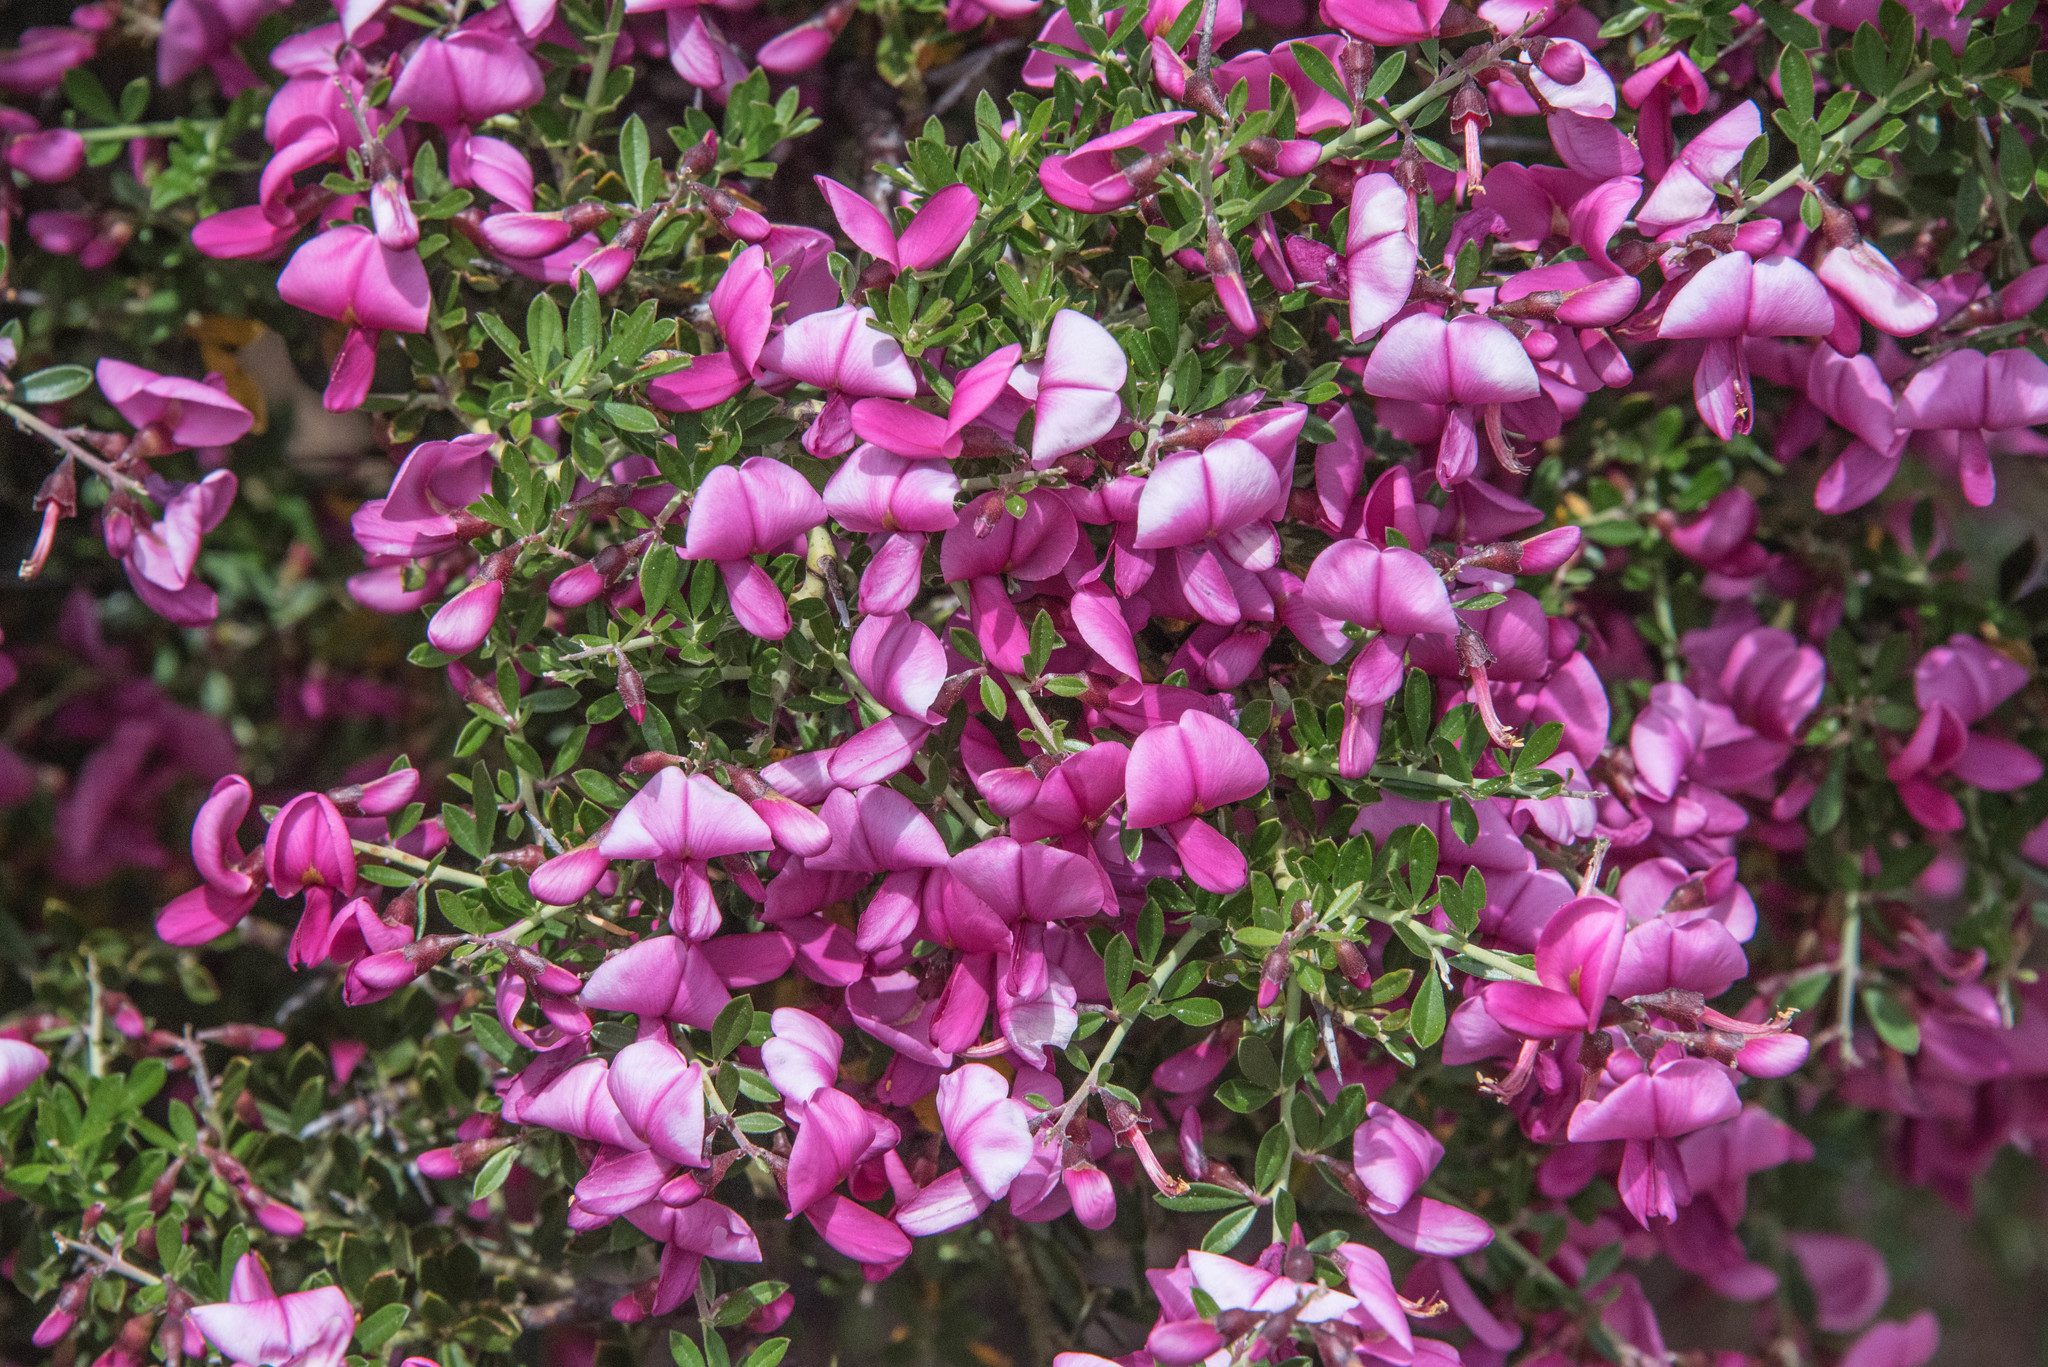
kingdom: Plantae
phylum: Tracheophyta
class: Magnoliopsida
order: Fabales
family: Fabaceae
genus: Pickeringia
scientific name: Pickeringia montana
